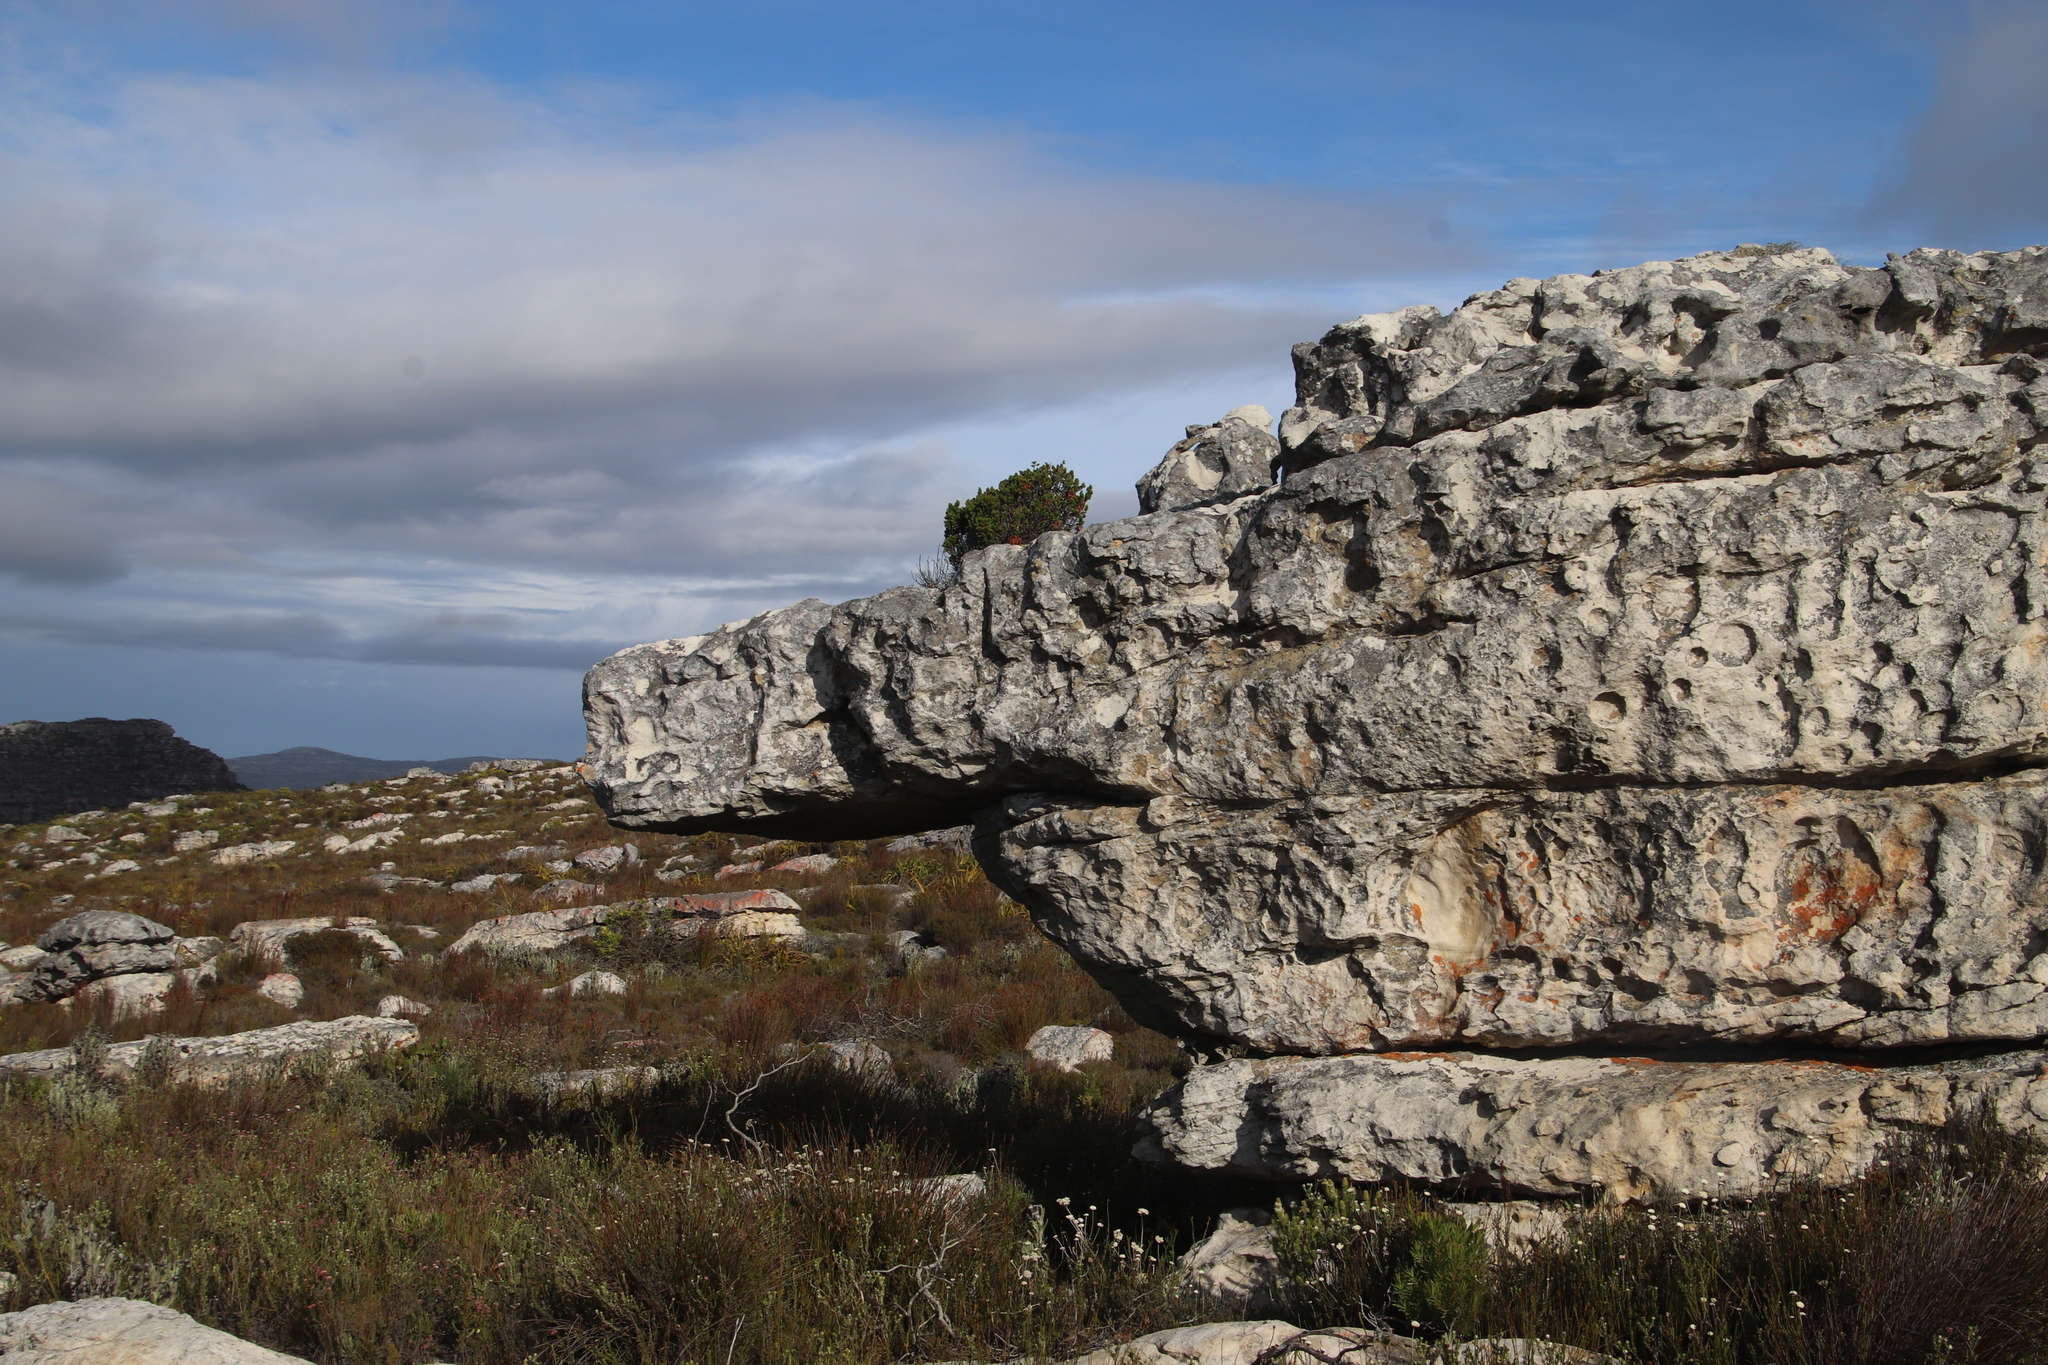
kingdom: Plantae
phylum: Tracheophyta
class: Magnoliopsida
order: Ericales
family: Ericaceae
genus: Erica
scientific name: Erica coccinea
